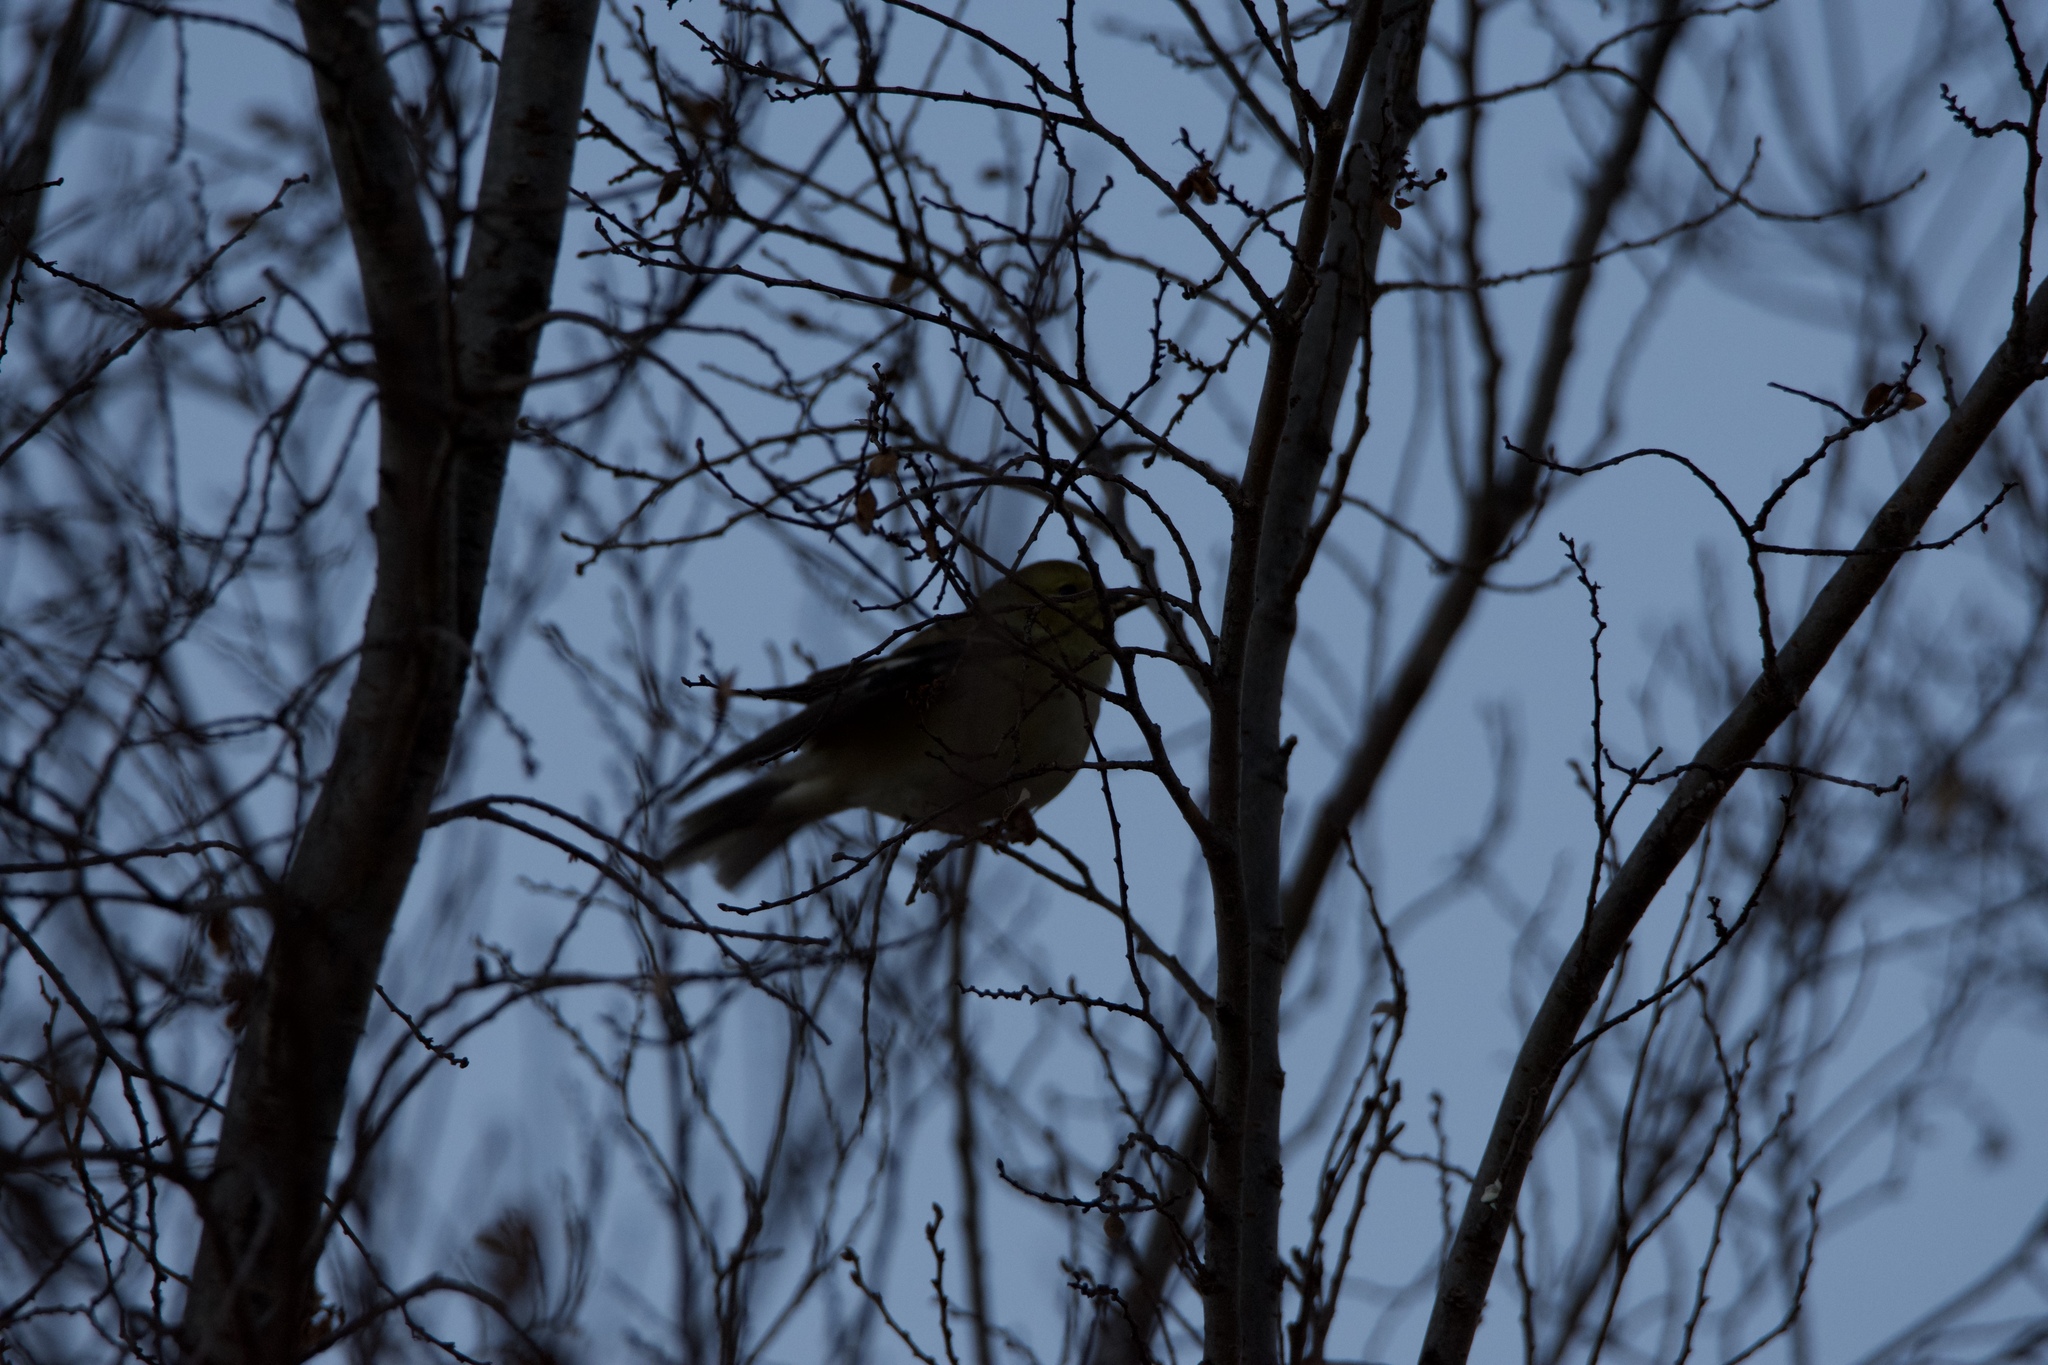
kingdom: Animalia
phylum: Chordata
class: Aves
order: Passeriformes
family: Fringillidae
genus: Spinus
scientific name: Spinus tristis
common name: American goldfinch
